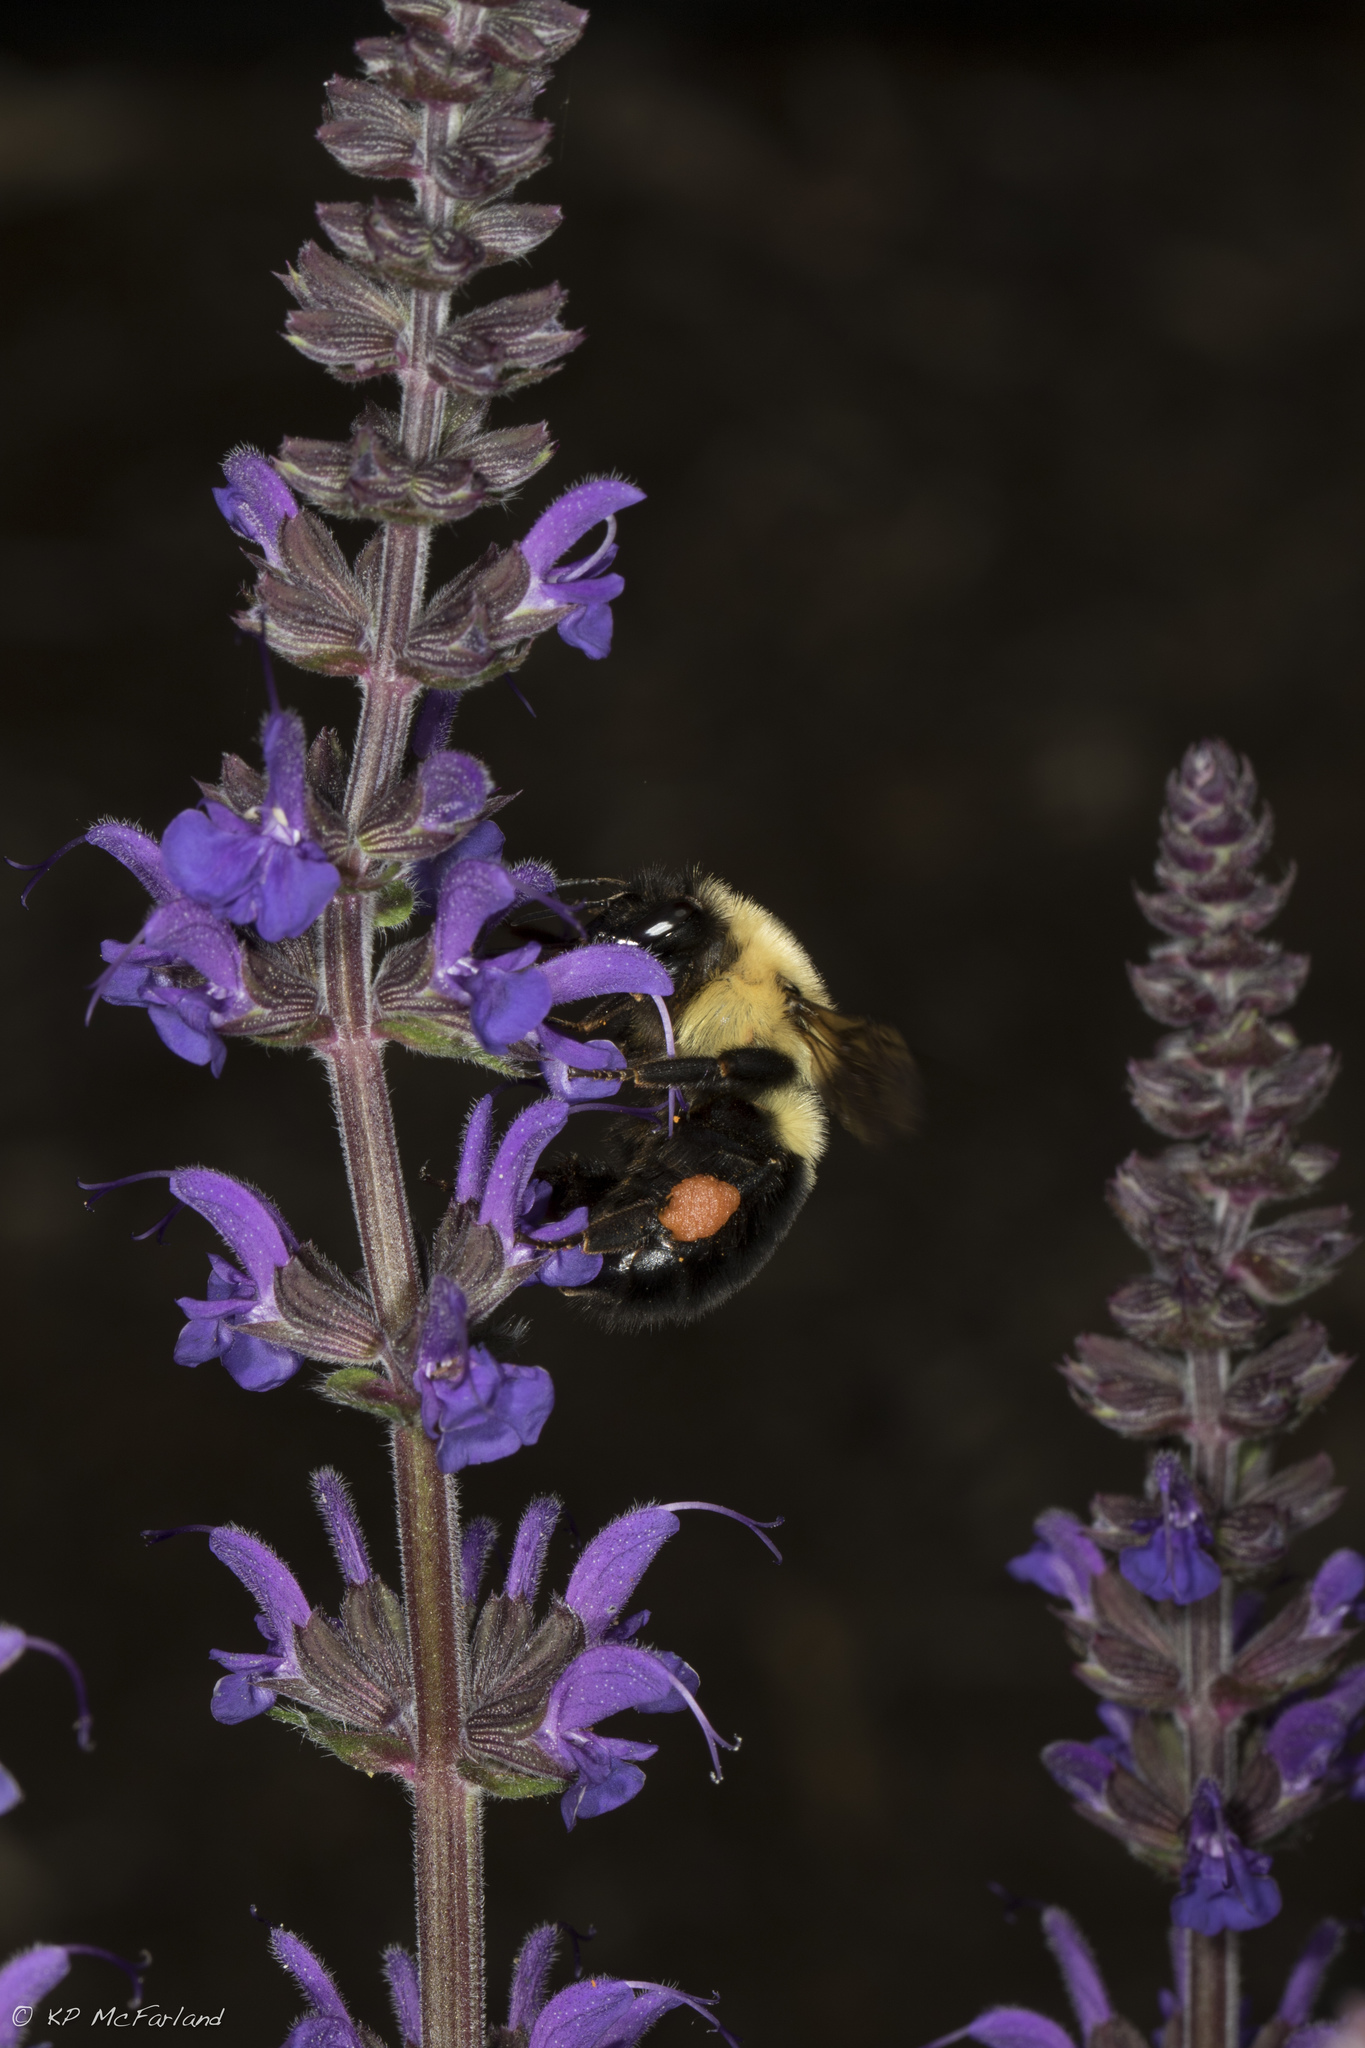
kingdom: Animalia
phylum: Arthropoda
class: Insecta
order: Hymenoptera
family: Apidae
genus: Bombus
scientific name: Bombus bimaculatus
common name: Two-spotted bumble bee
